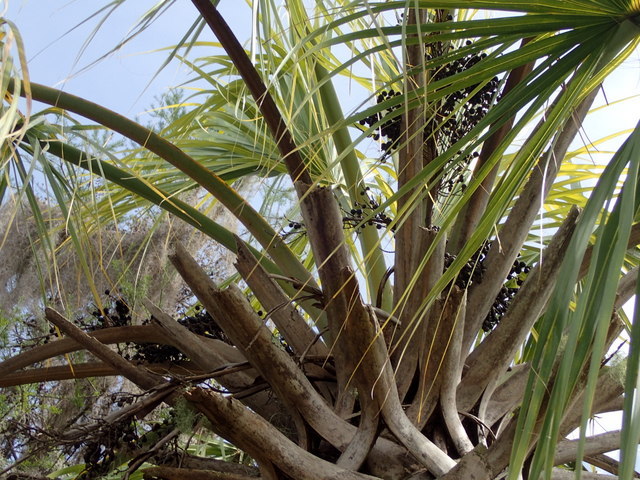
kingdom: Plantae
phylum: Tracheophyta
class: Liliopsida
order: Arecales
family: Arecaceae
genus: Sabal
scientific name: Sabal palmetto
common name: Blue palmetto
